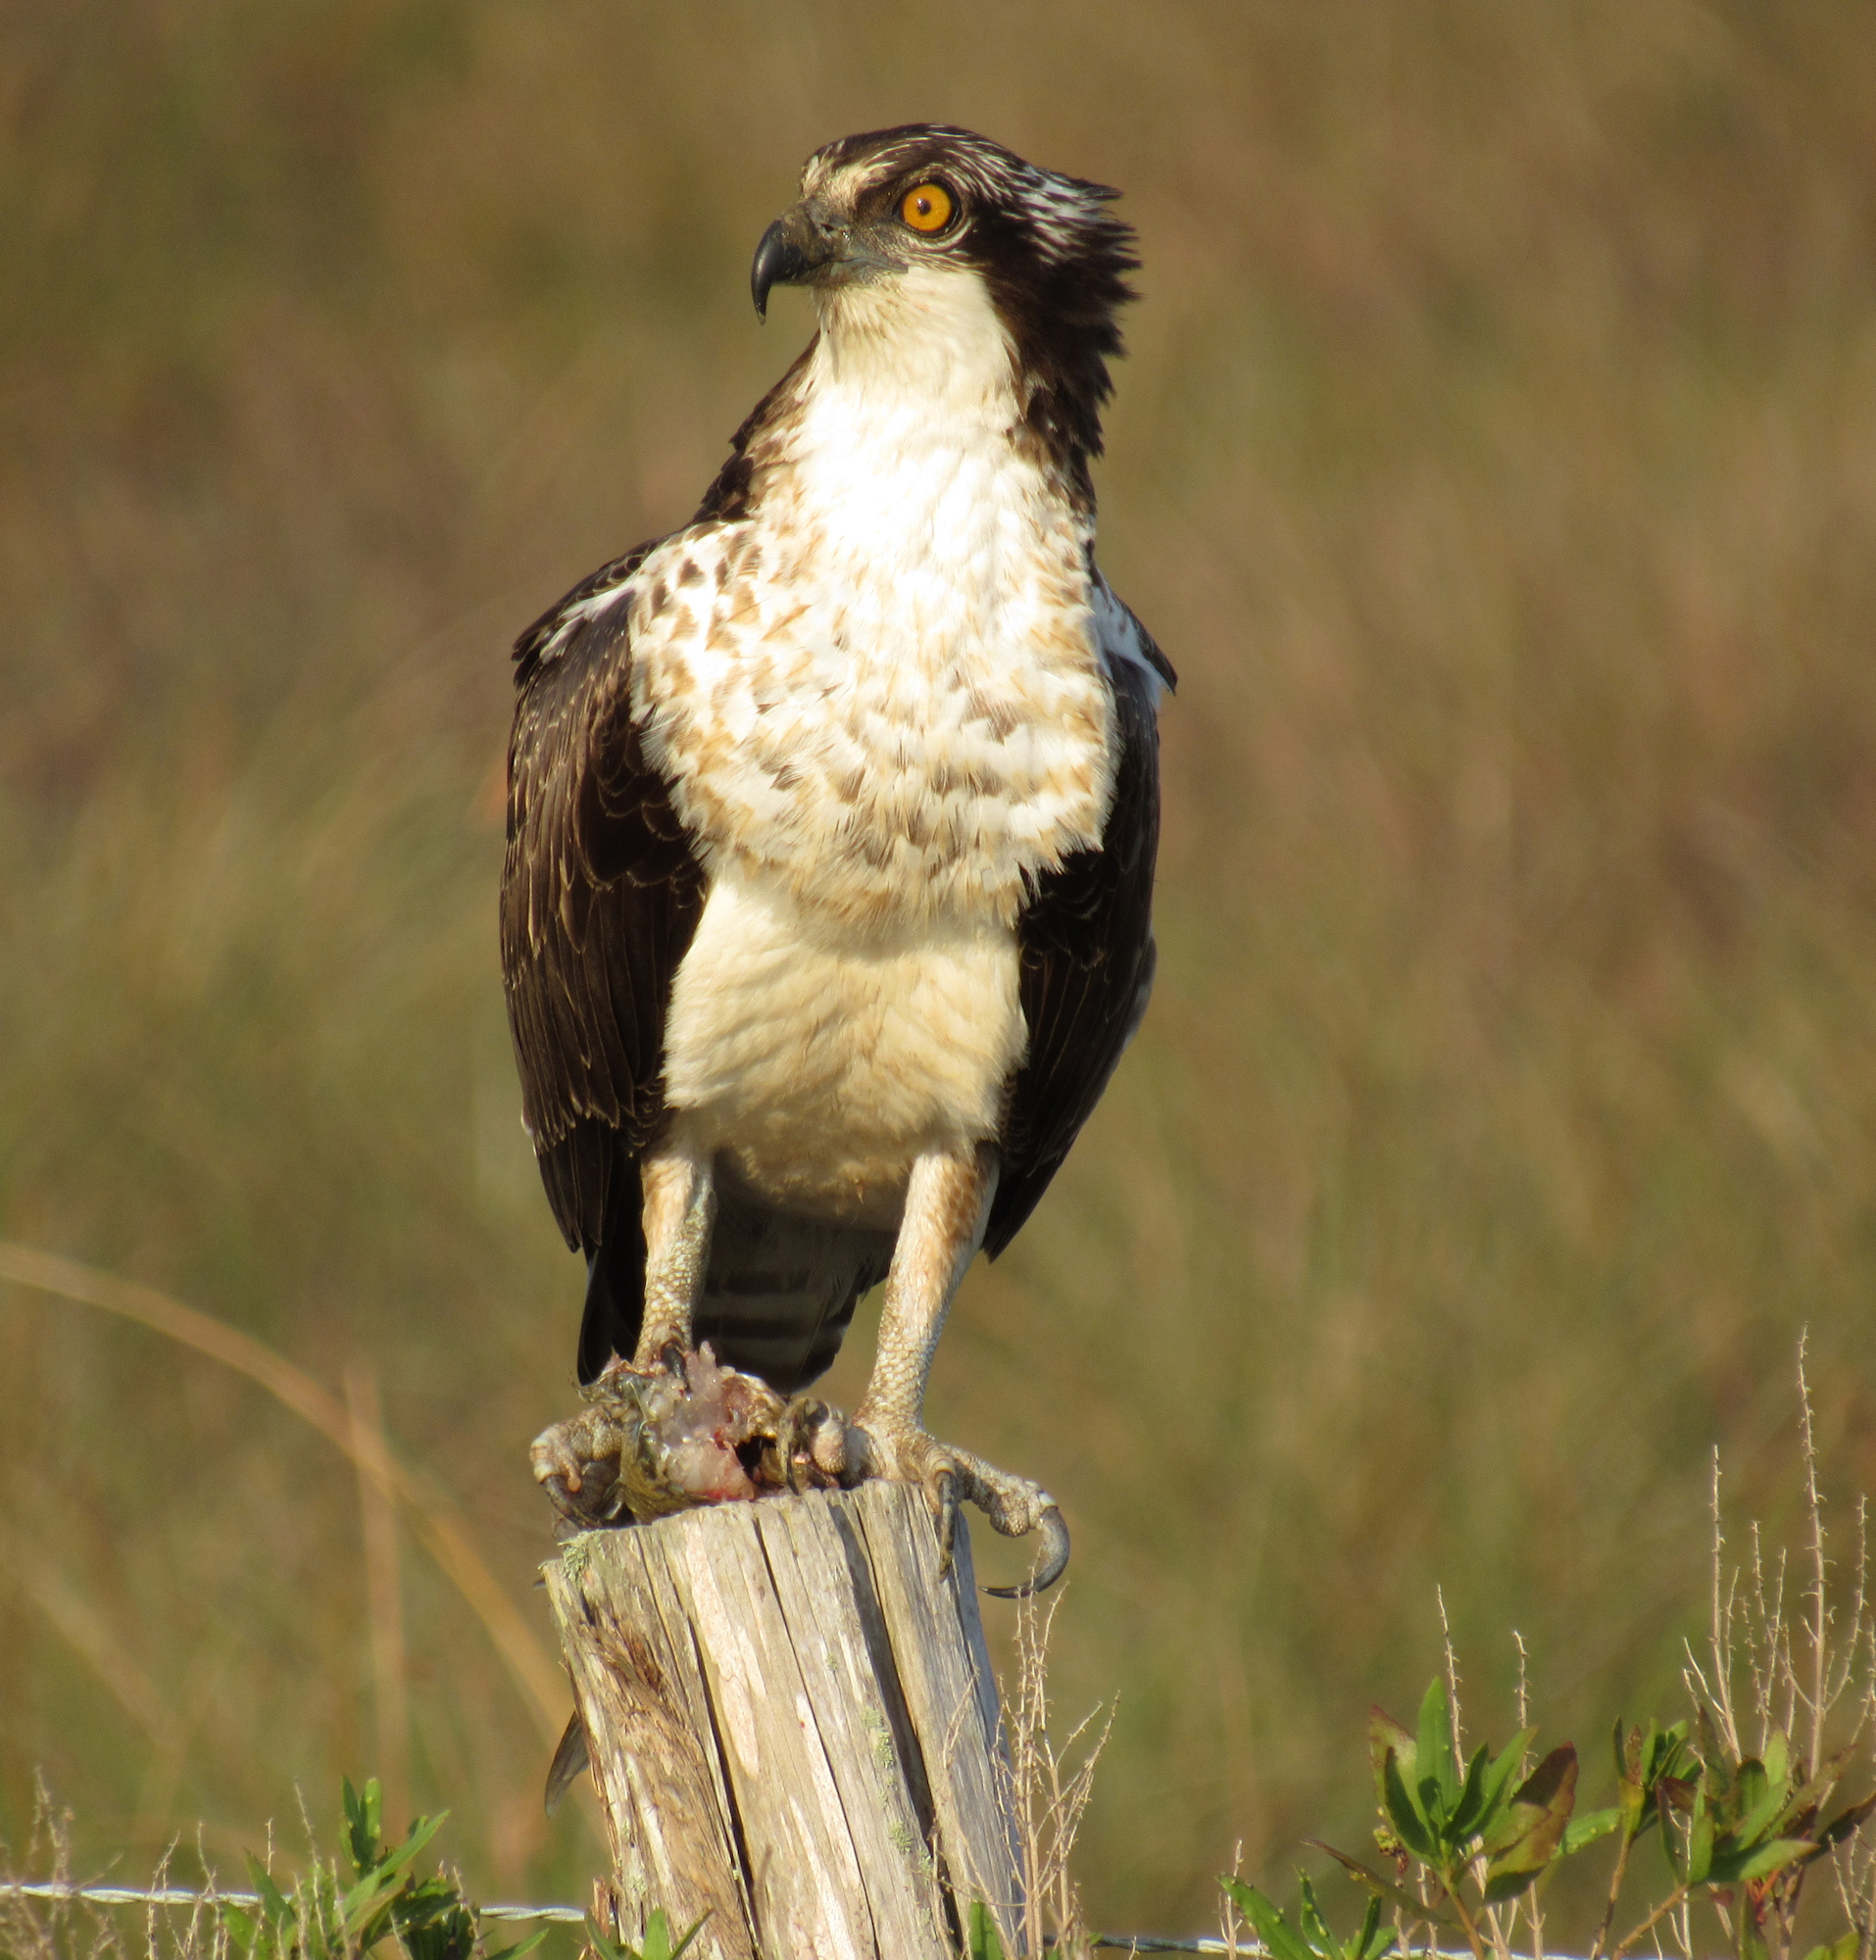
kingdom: Animalia
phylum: Chordata
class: Aves
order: Accipitriformes
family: Pandionidae
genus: Pandion
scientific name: Pandion haliaetus
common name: Osprey
